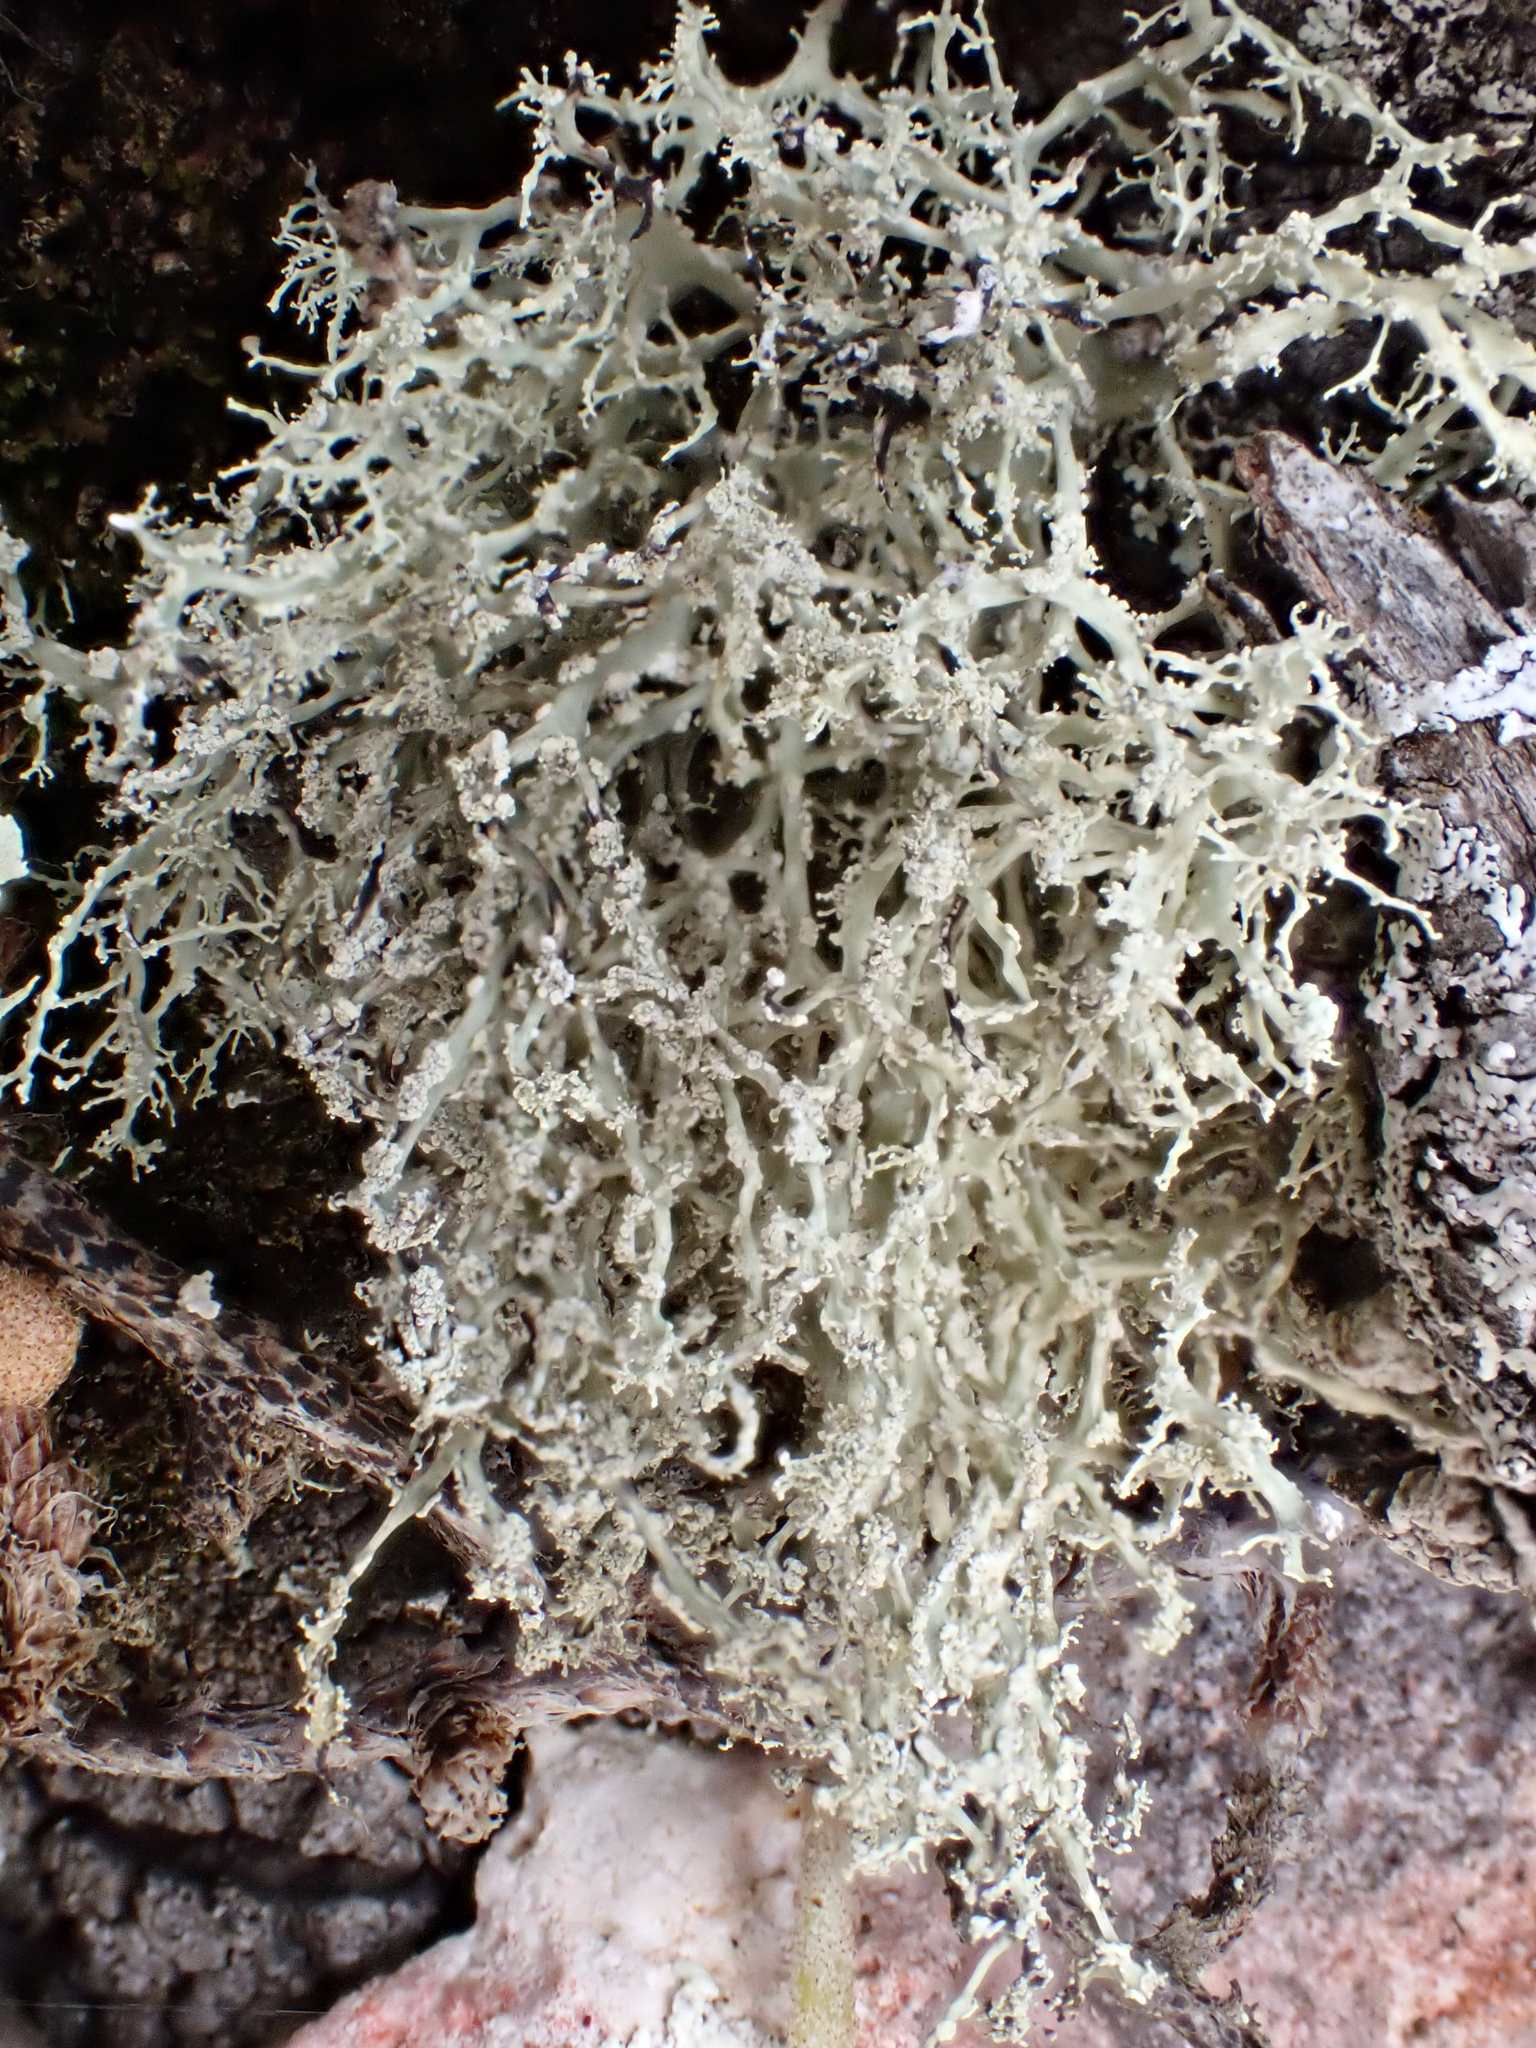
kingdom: Fungi
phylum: Ascomycota
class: Lecanoromycetes
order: Lecanorales
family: Ramalinaceae
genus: Ramalina
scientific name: Ramalina peruviana
